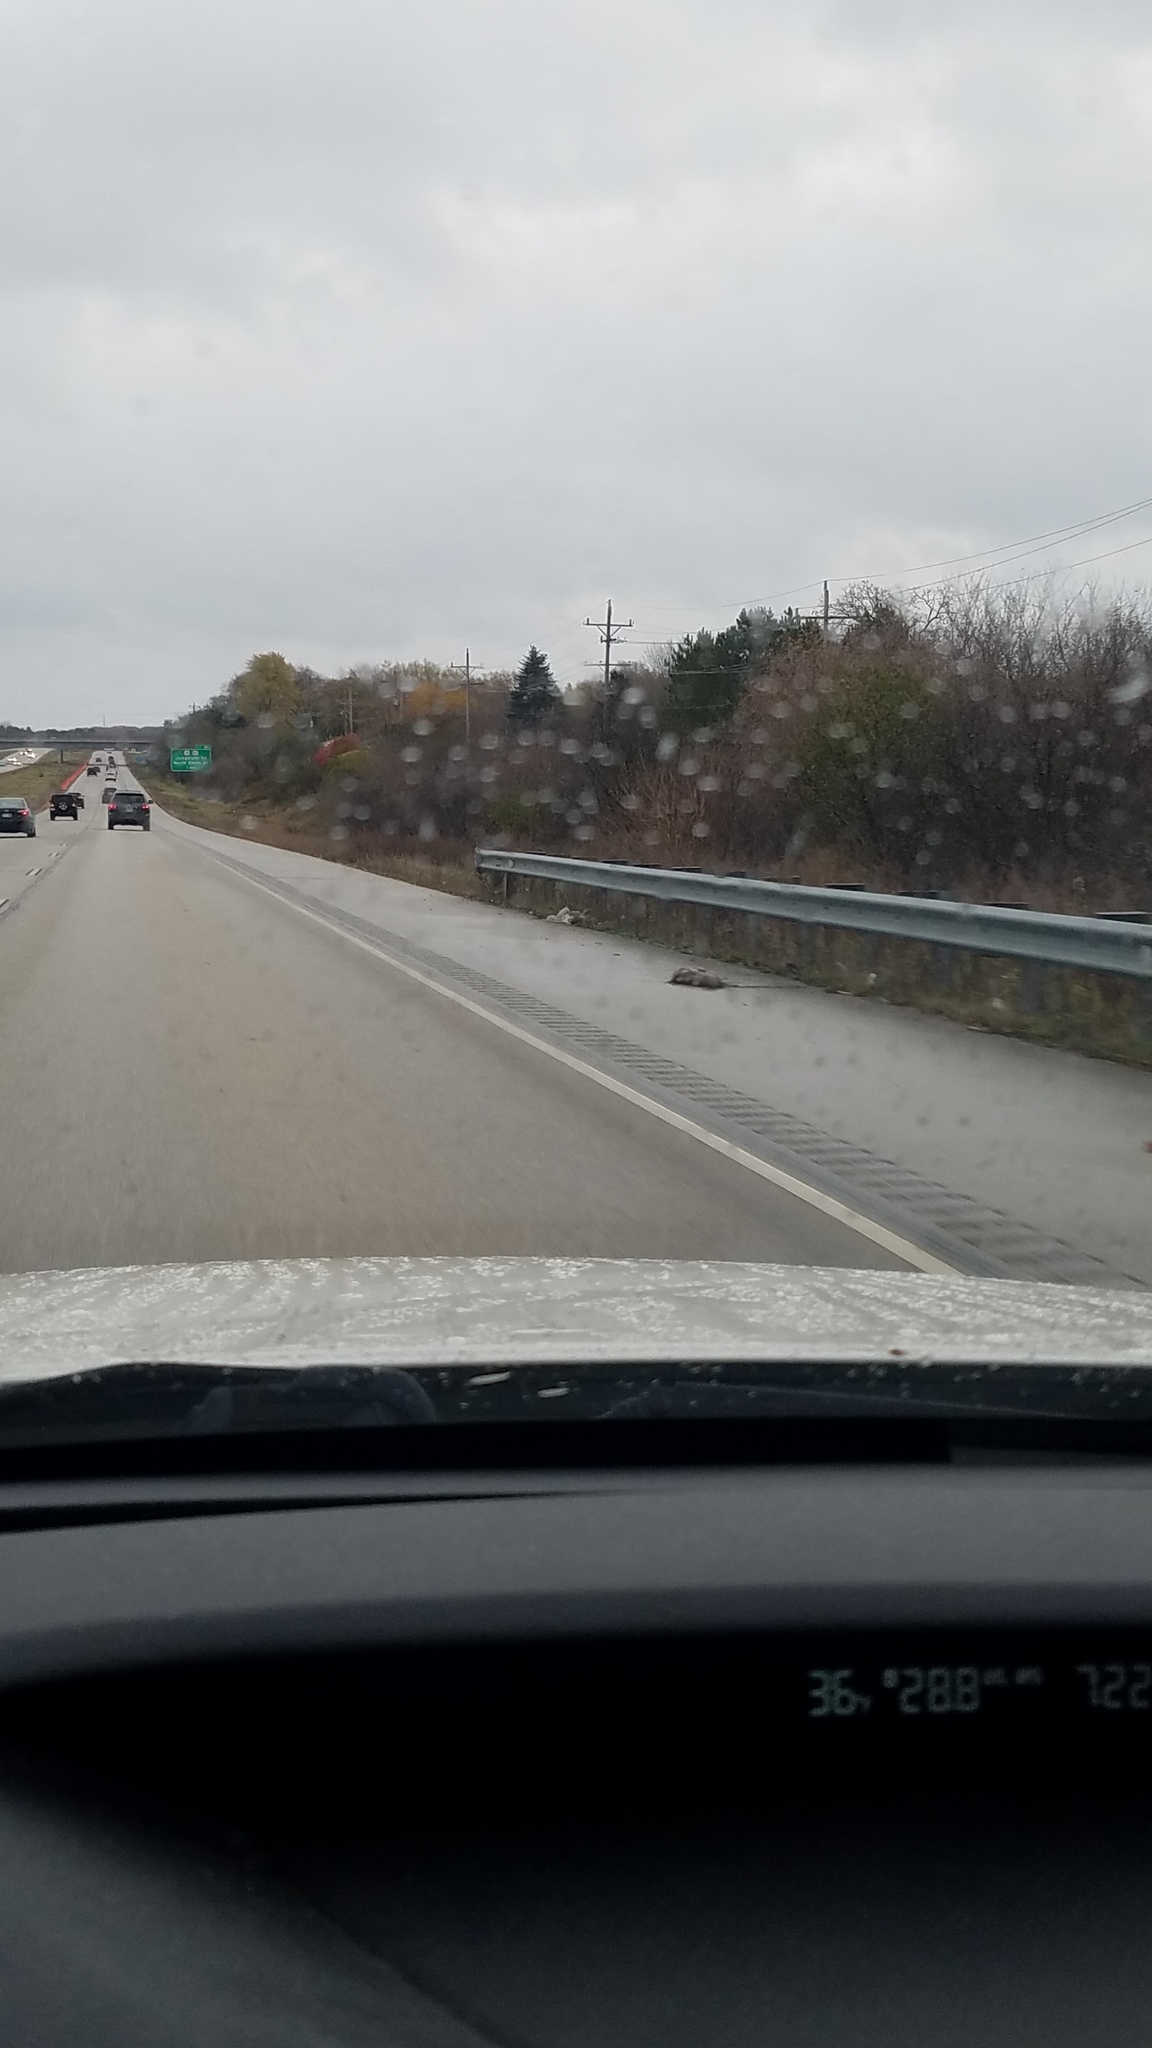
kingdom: Animalia
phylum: Chordata
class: Mammalia
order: Didelphimorphia
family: Didelphidae
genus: Didelphis
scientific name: Didelphis virginiana
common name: Virginia opossum
